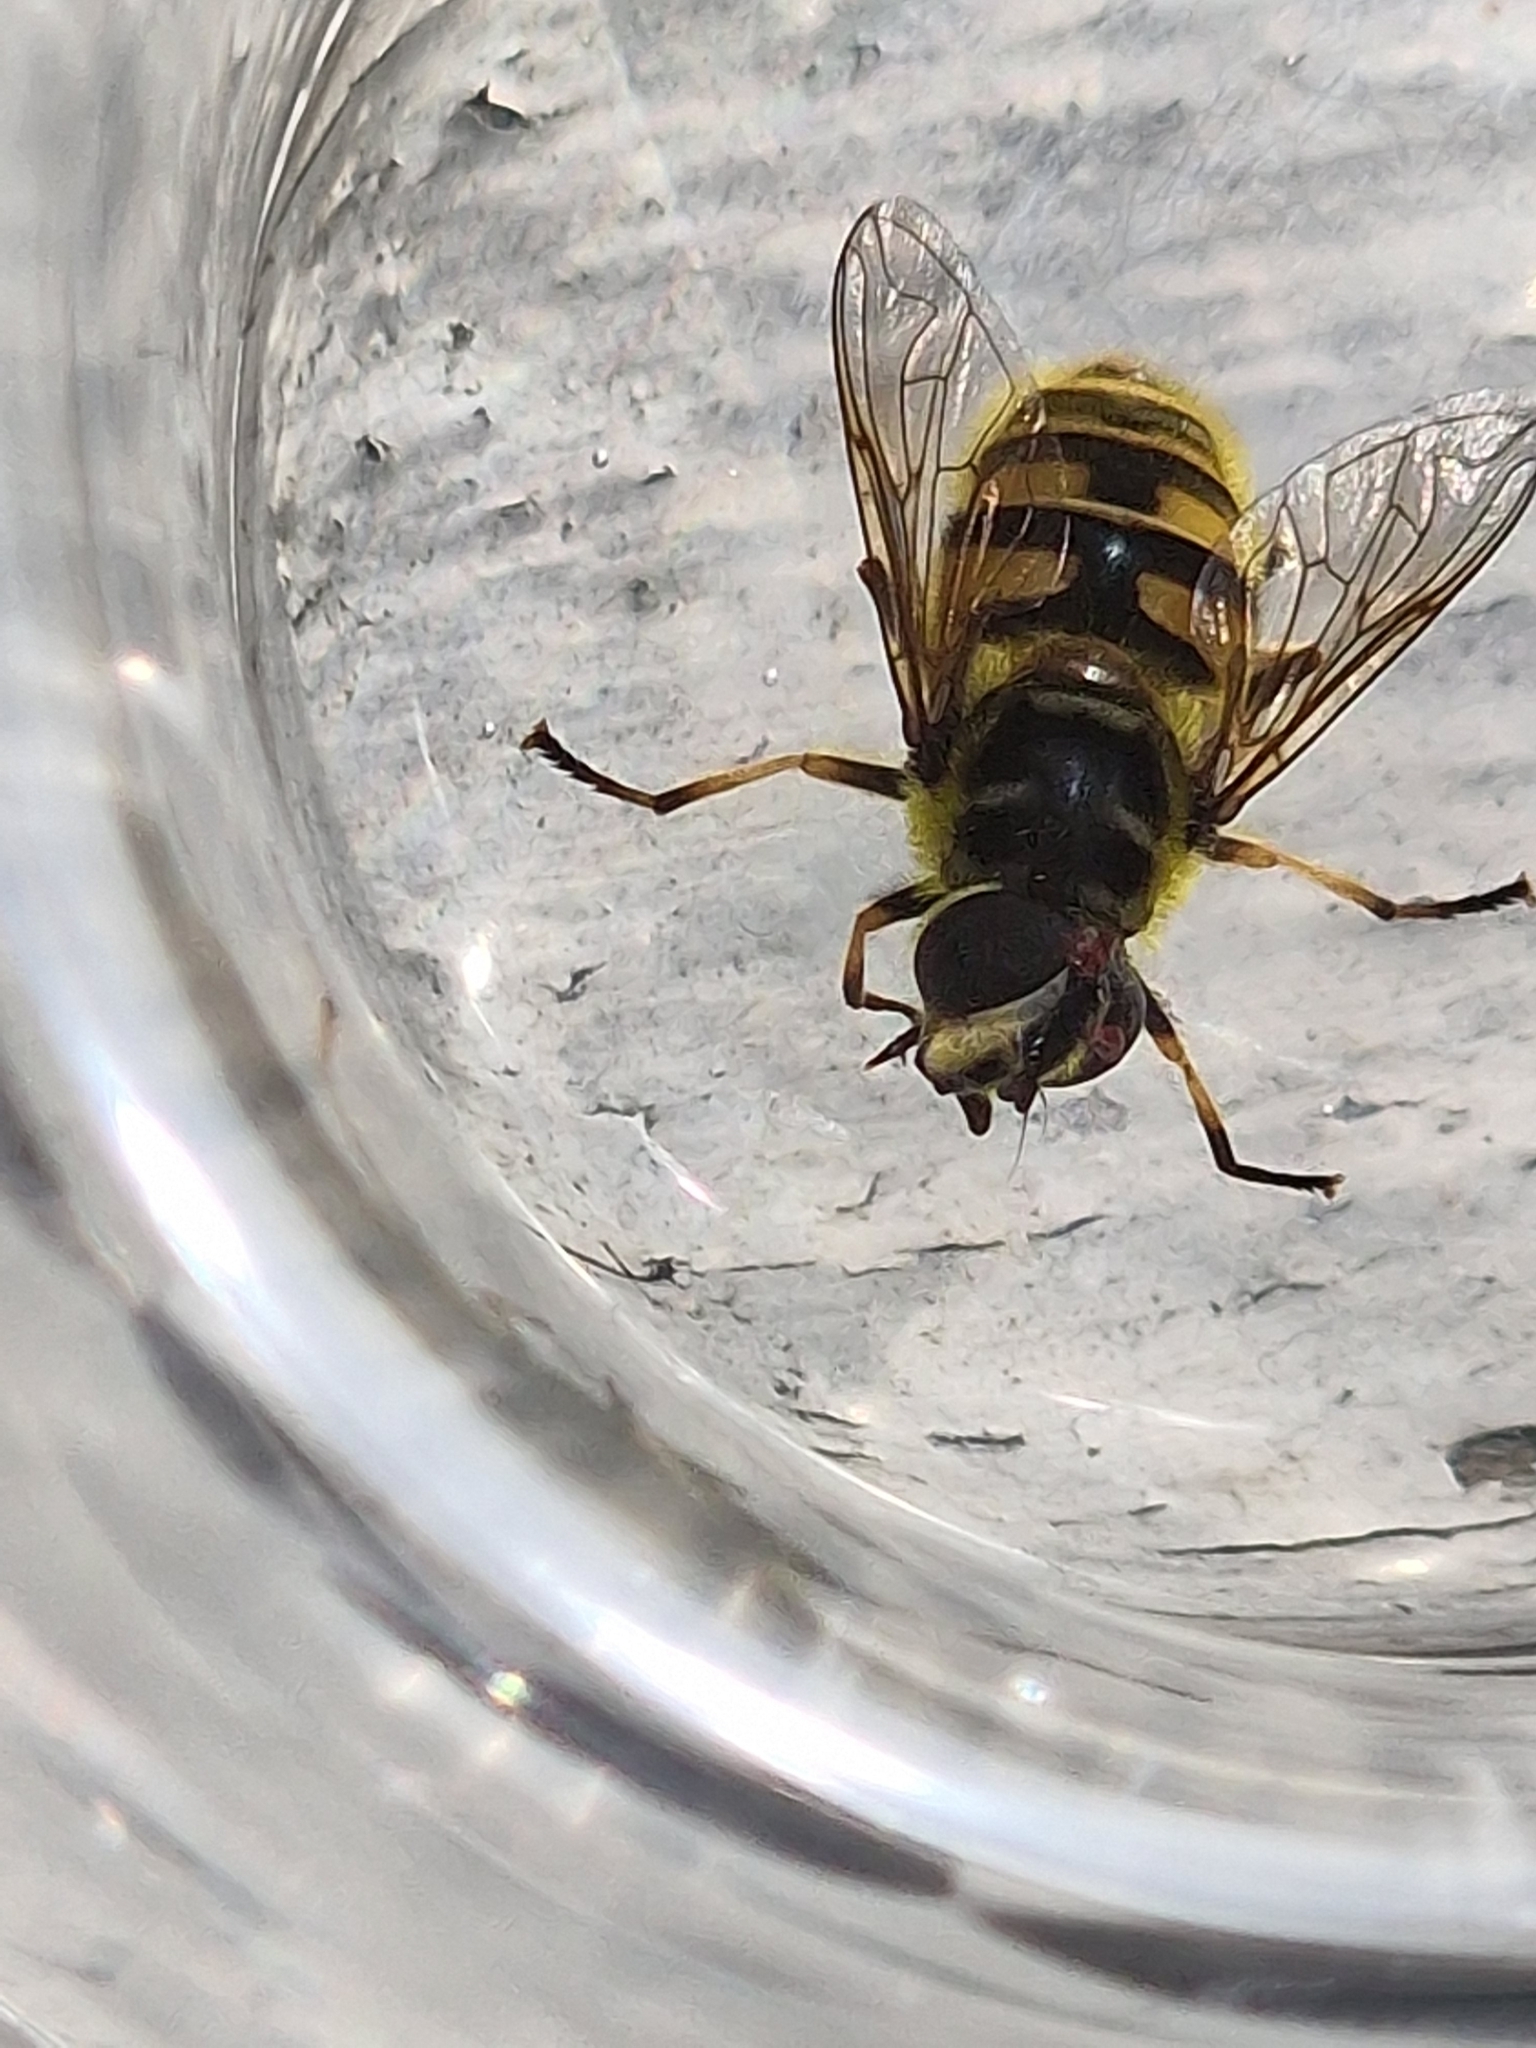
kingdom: Animalia
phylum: Arthropoda
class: Insecta
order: Diptera
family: Syrphidae
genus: Myathropa
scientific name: Myathropa florea
